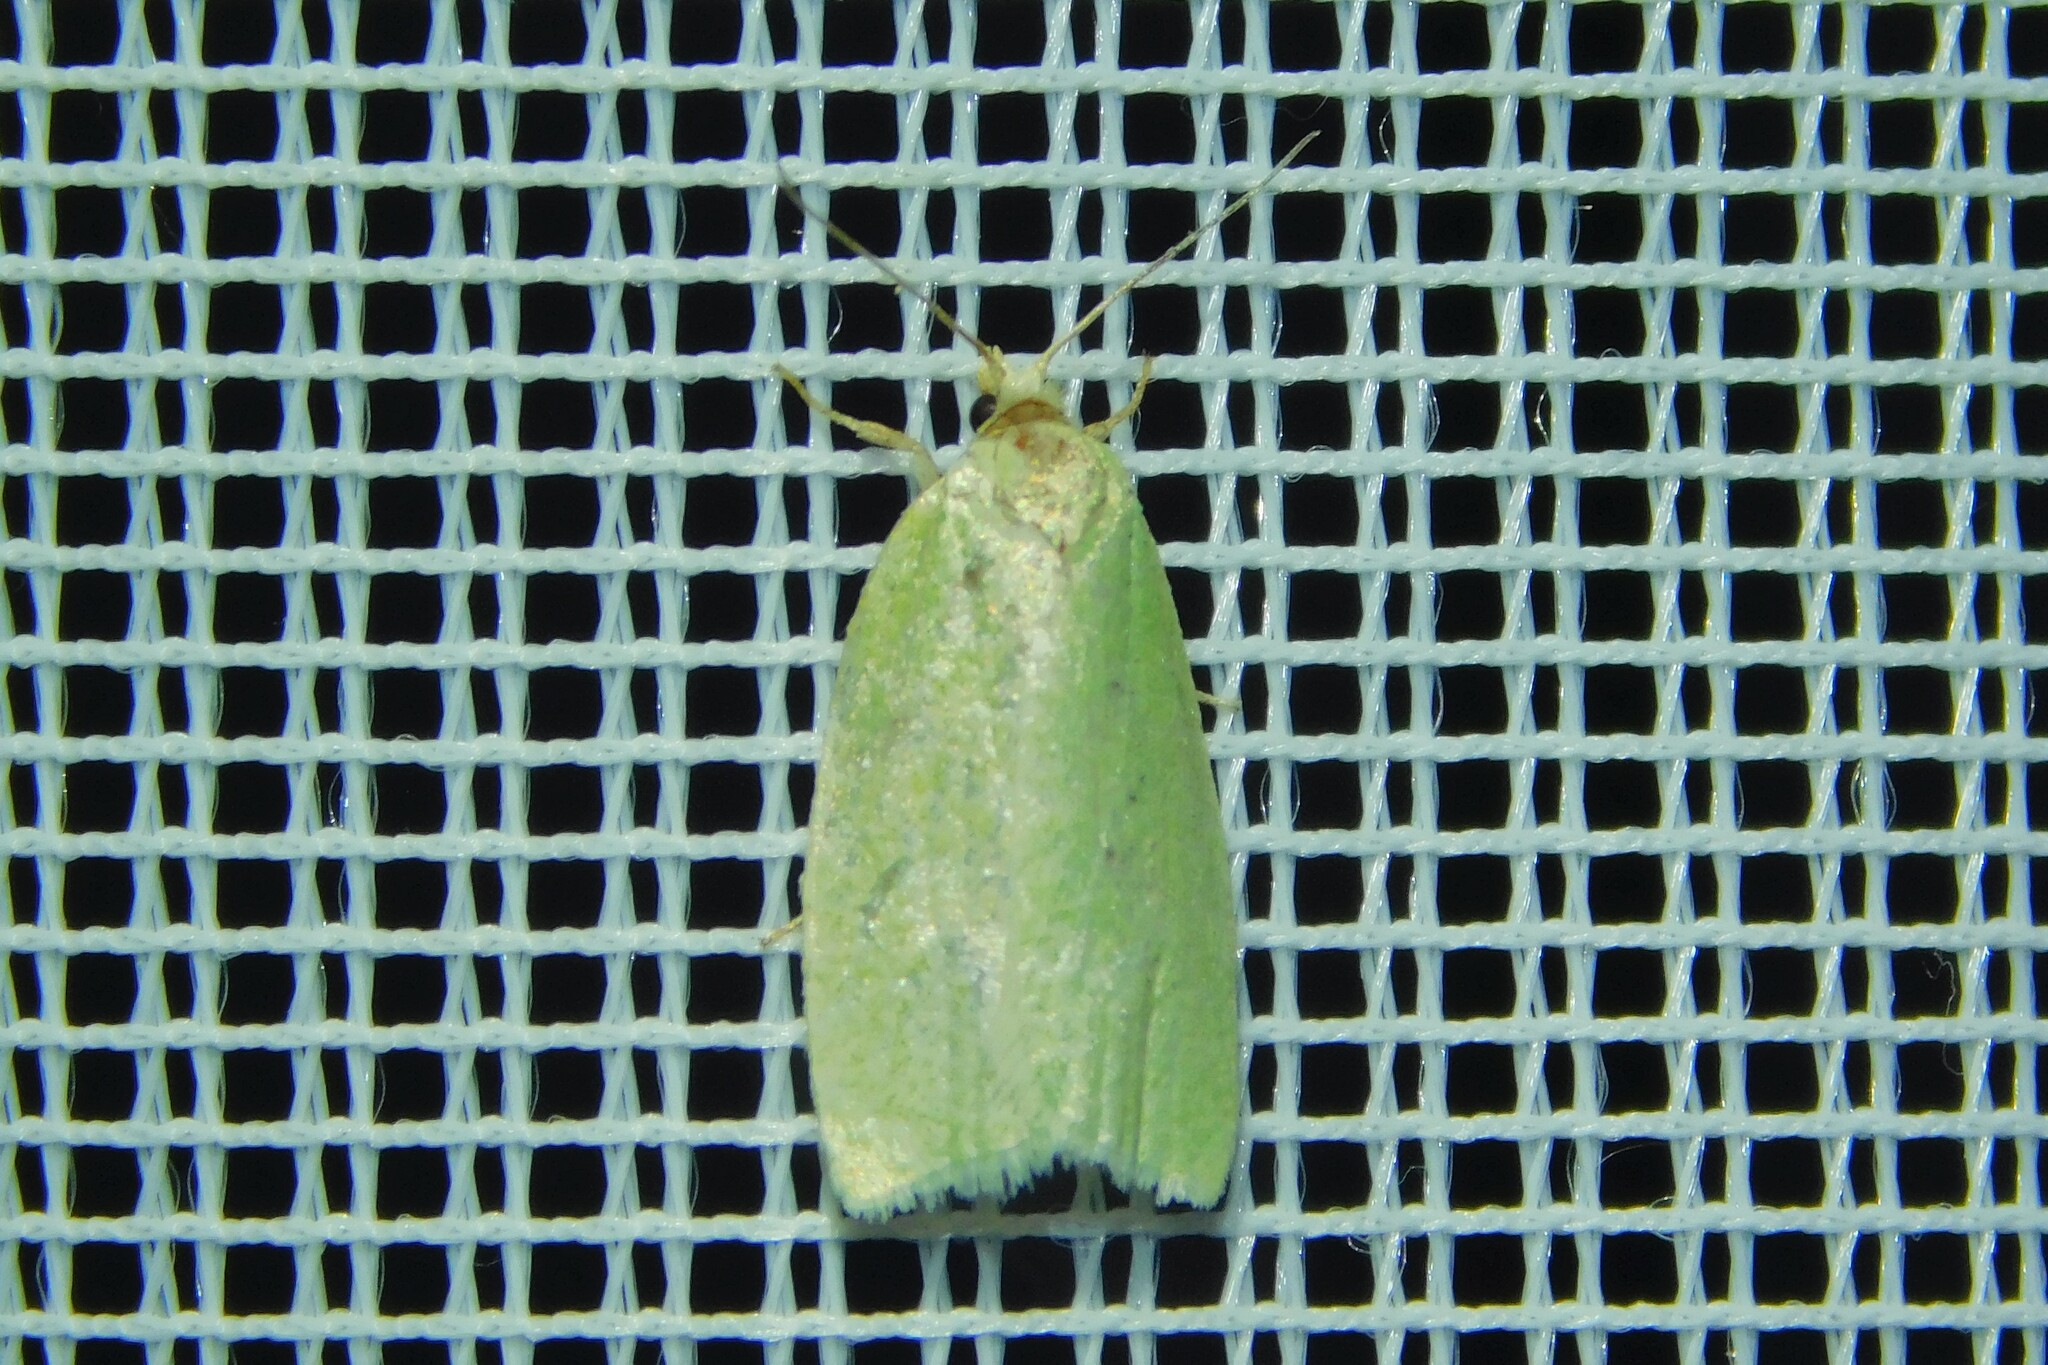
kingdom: Animalia
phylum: Arthropoda
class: Insecta
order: Lepidoptera
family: Tortricidae
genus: Tortrix
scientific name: Tortrix viridana
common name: Green oak tortrix
